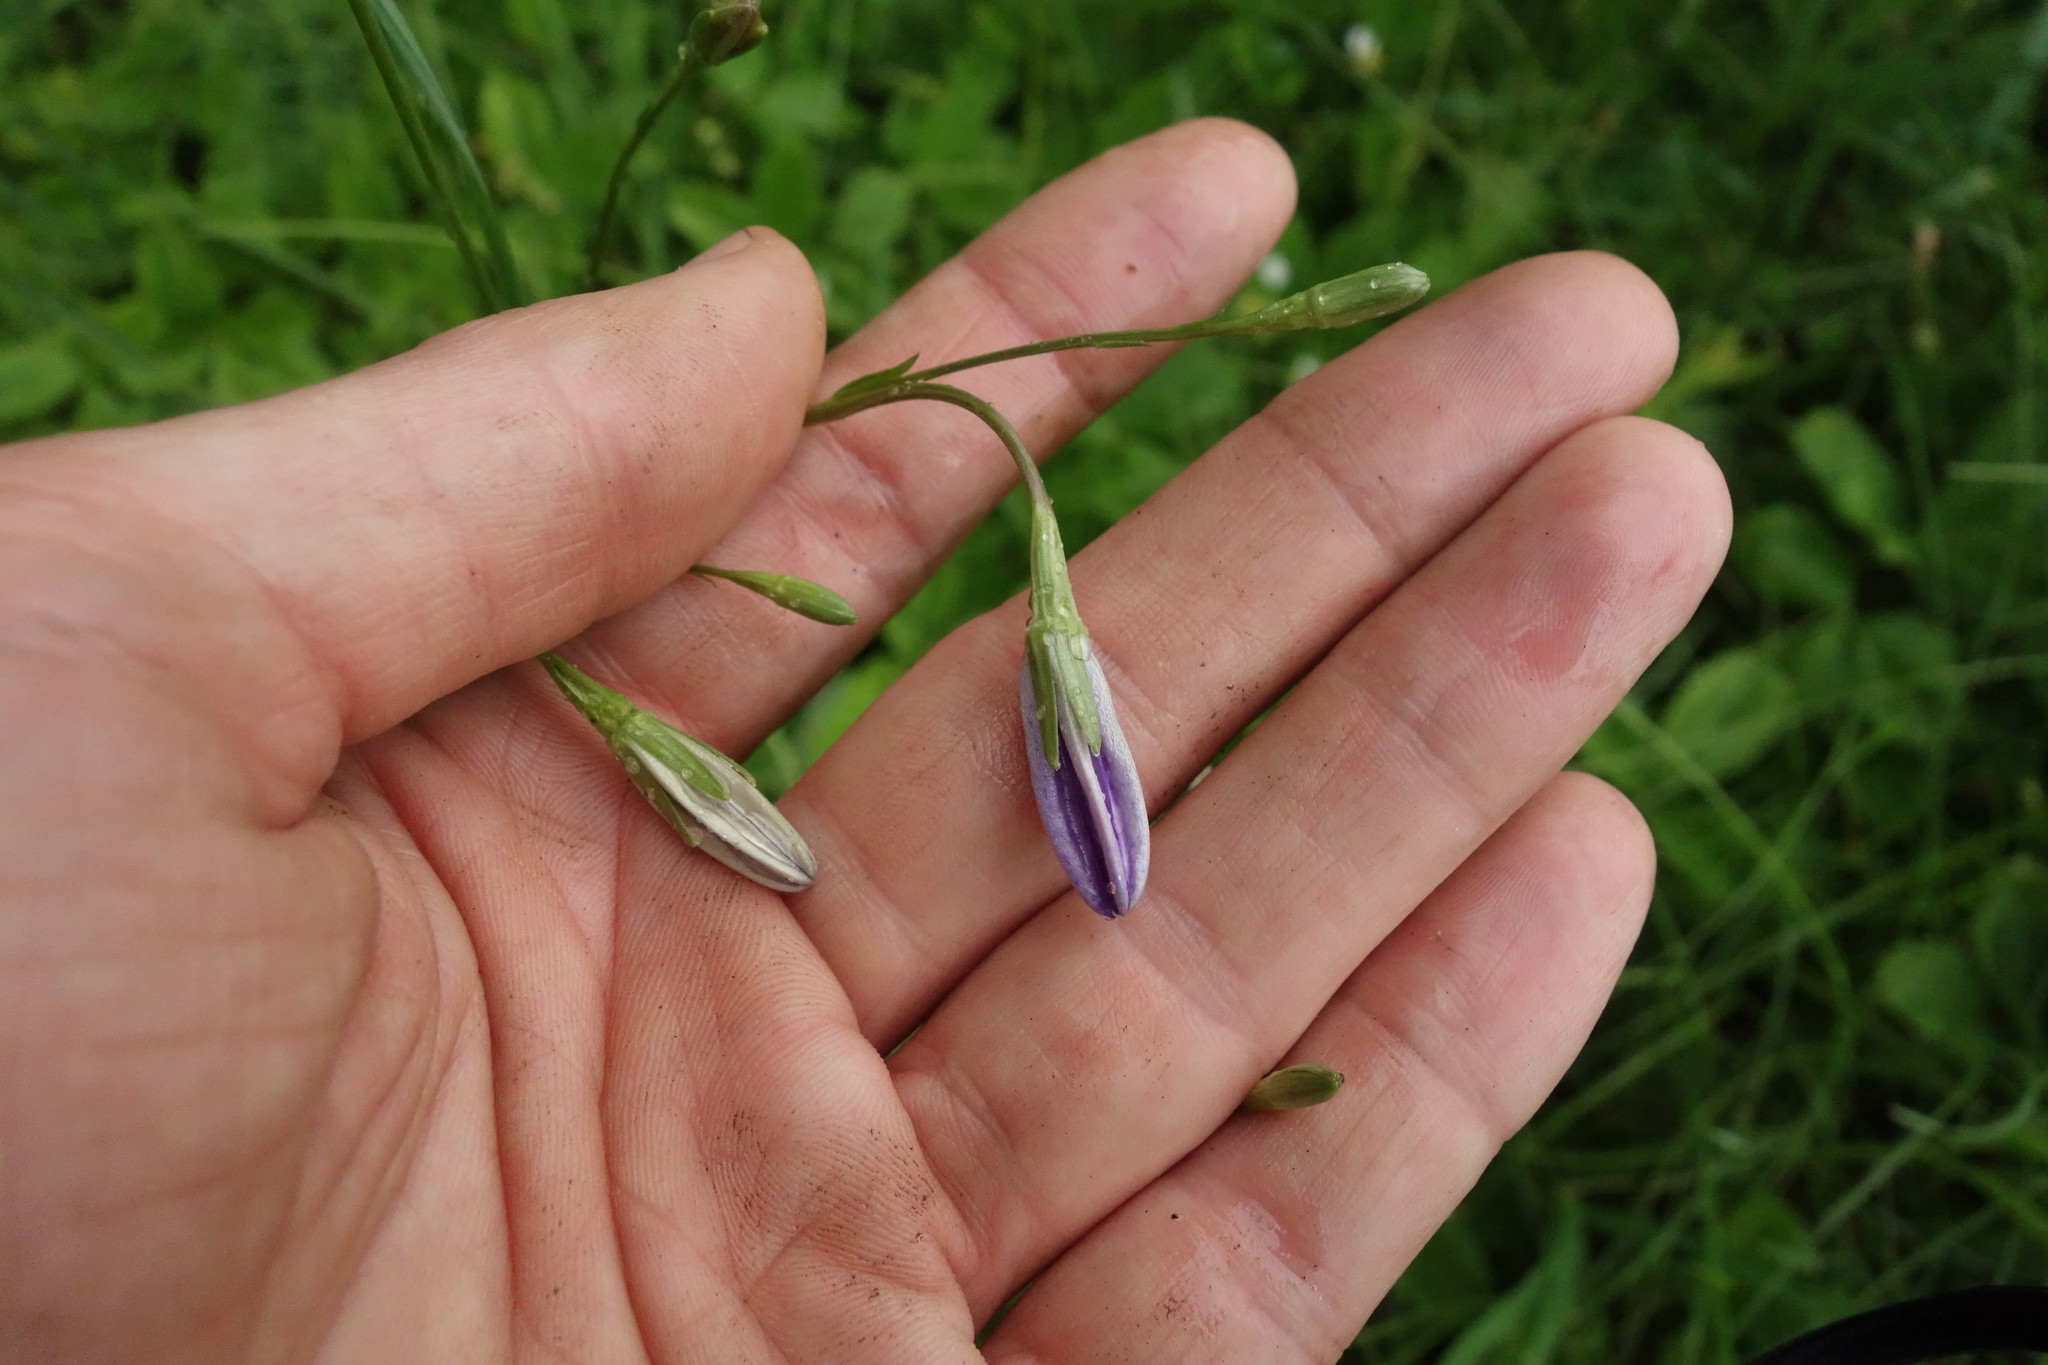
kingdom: Plantae
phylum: Tracheophyta
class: Magnoliopsida
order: Asterales
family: Campanulaceae
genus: Campanula
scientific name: Campanula stevenii
